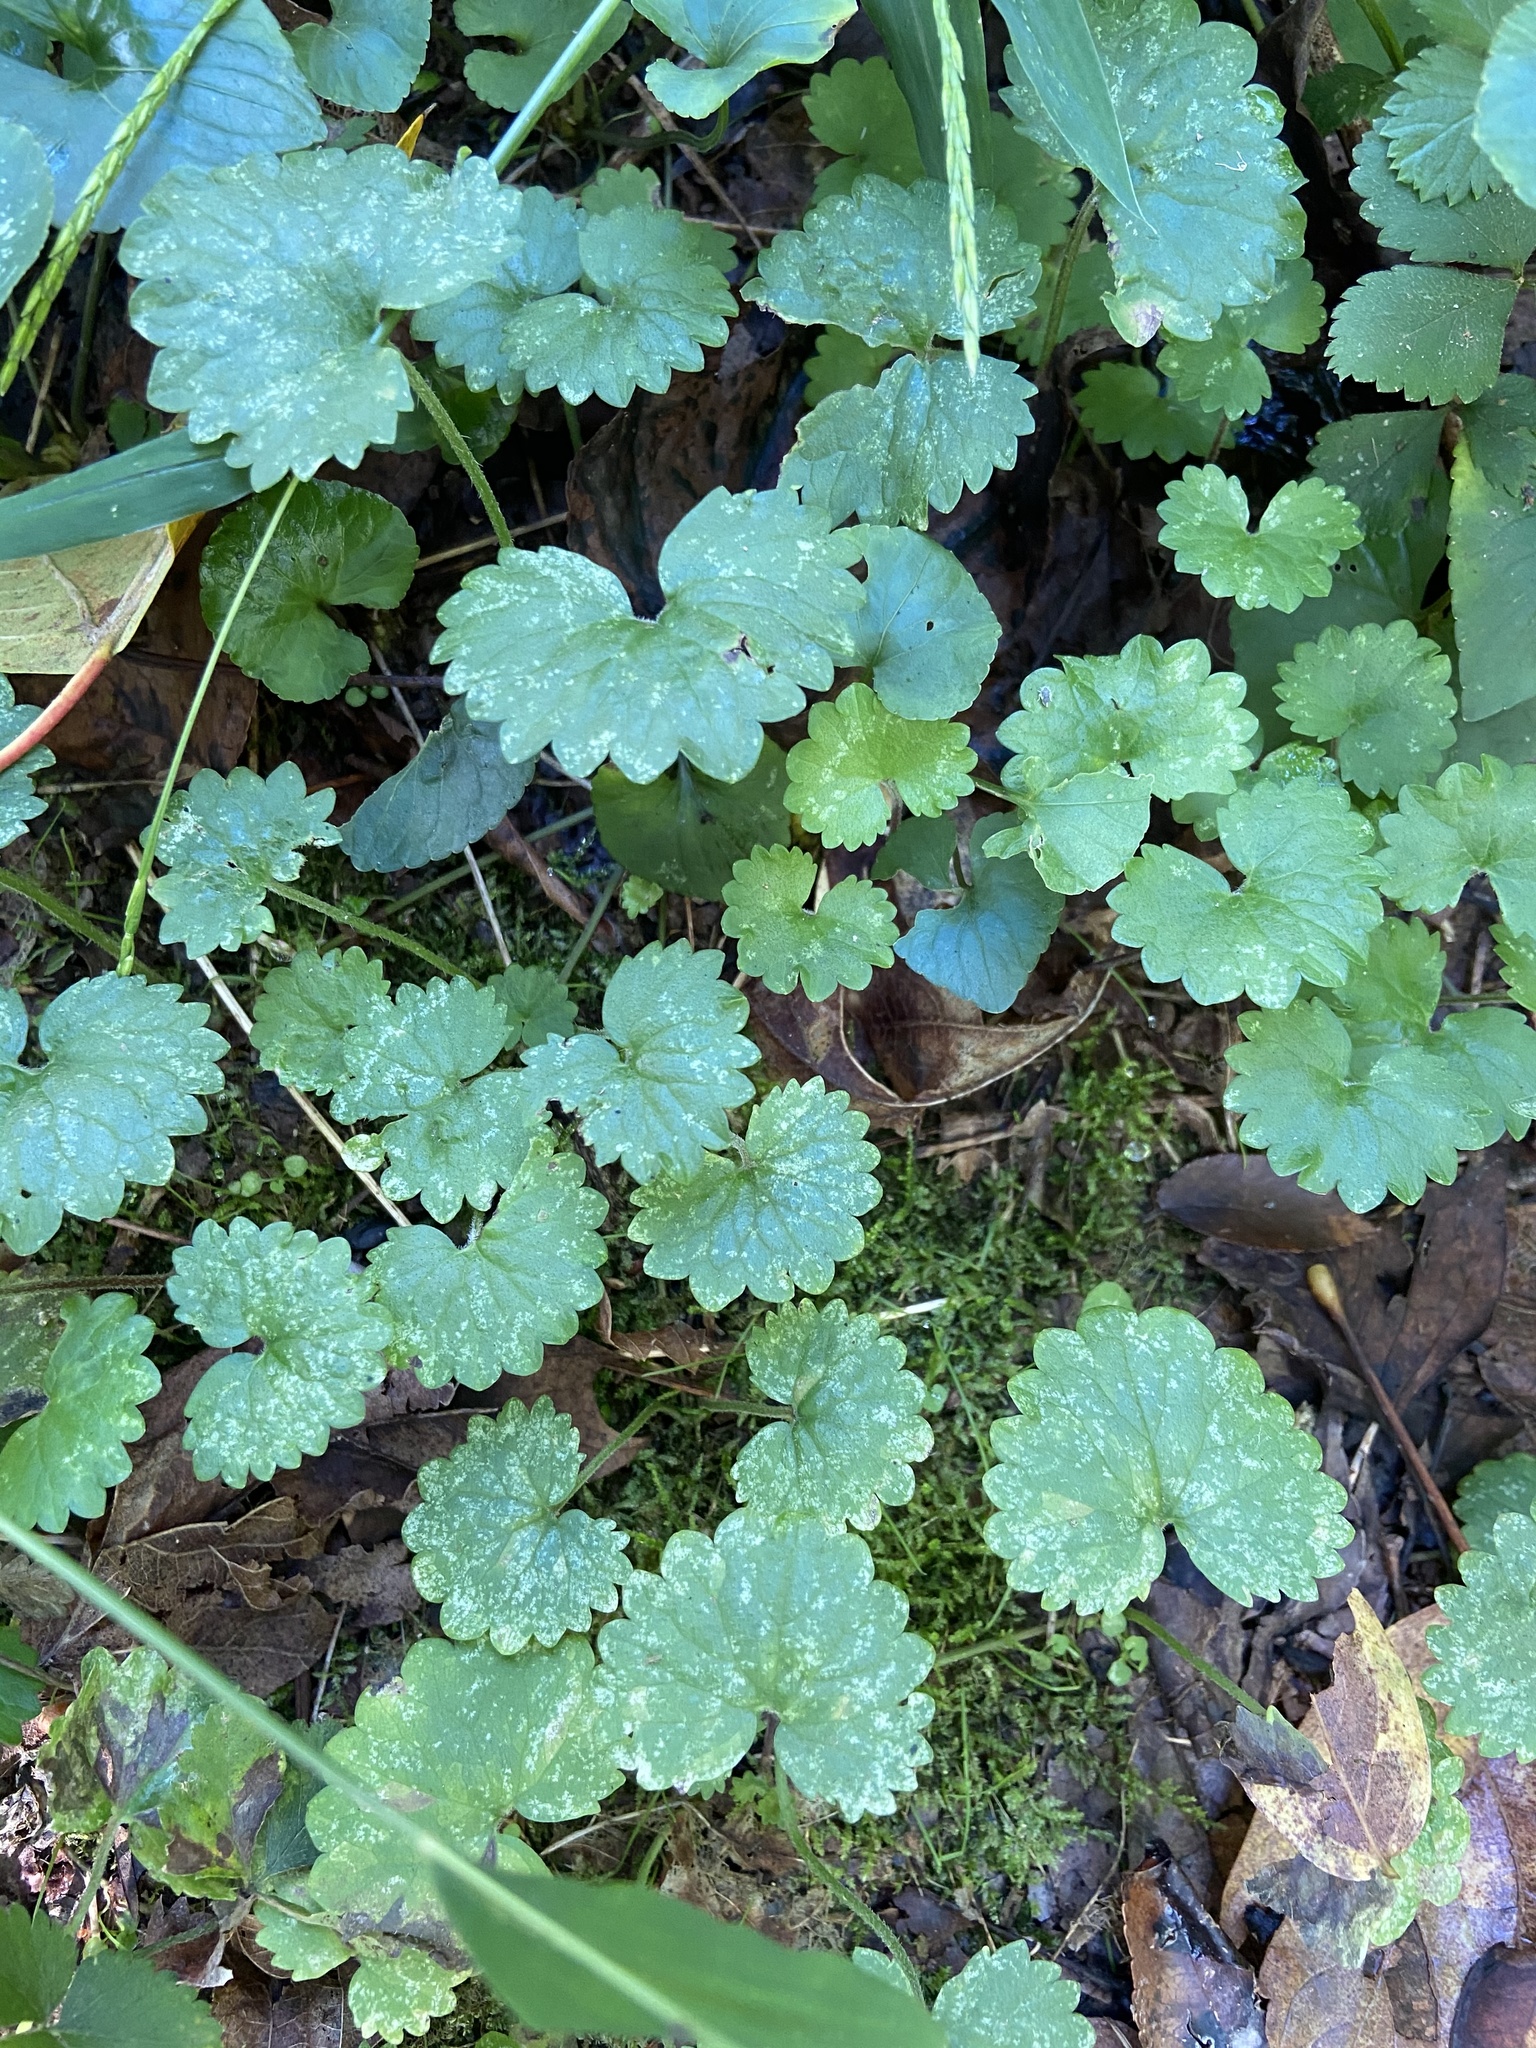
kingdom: Plantae
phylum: Tracheophyta
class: Magnoliopsida
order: Lamiales
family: Lamiaceae
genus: Glechoma
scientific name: Glechoma hederacea
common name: Ground ivy
